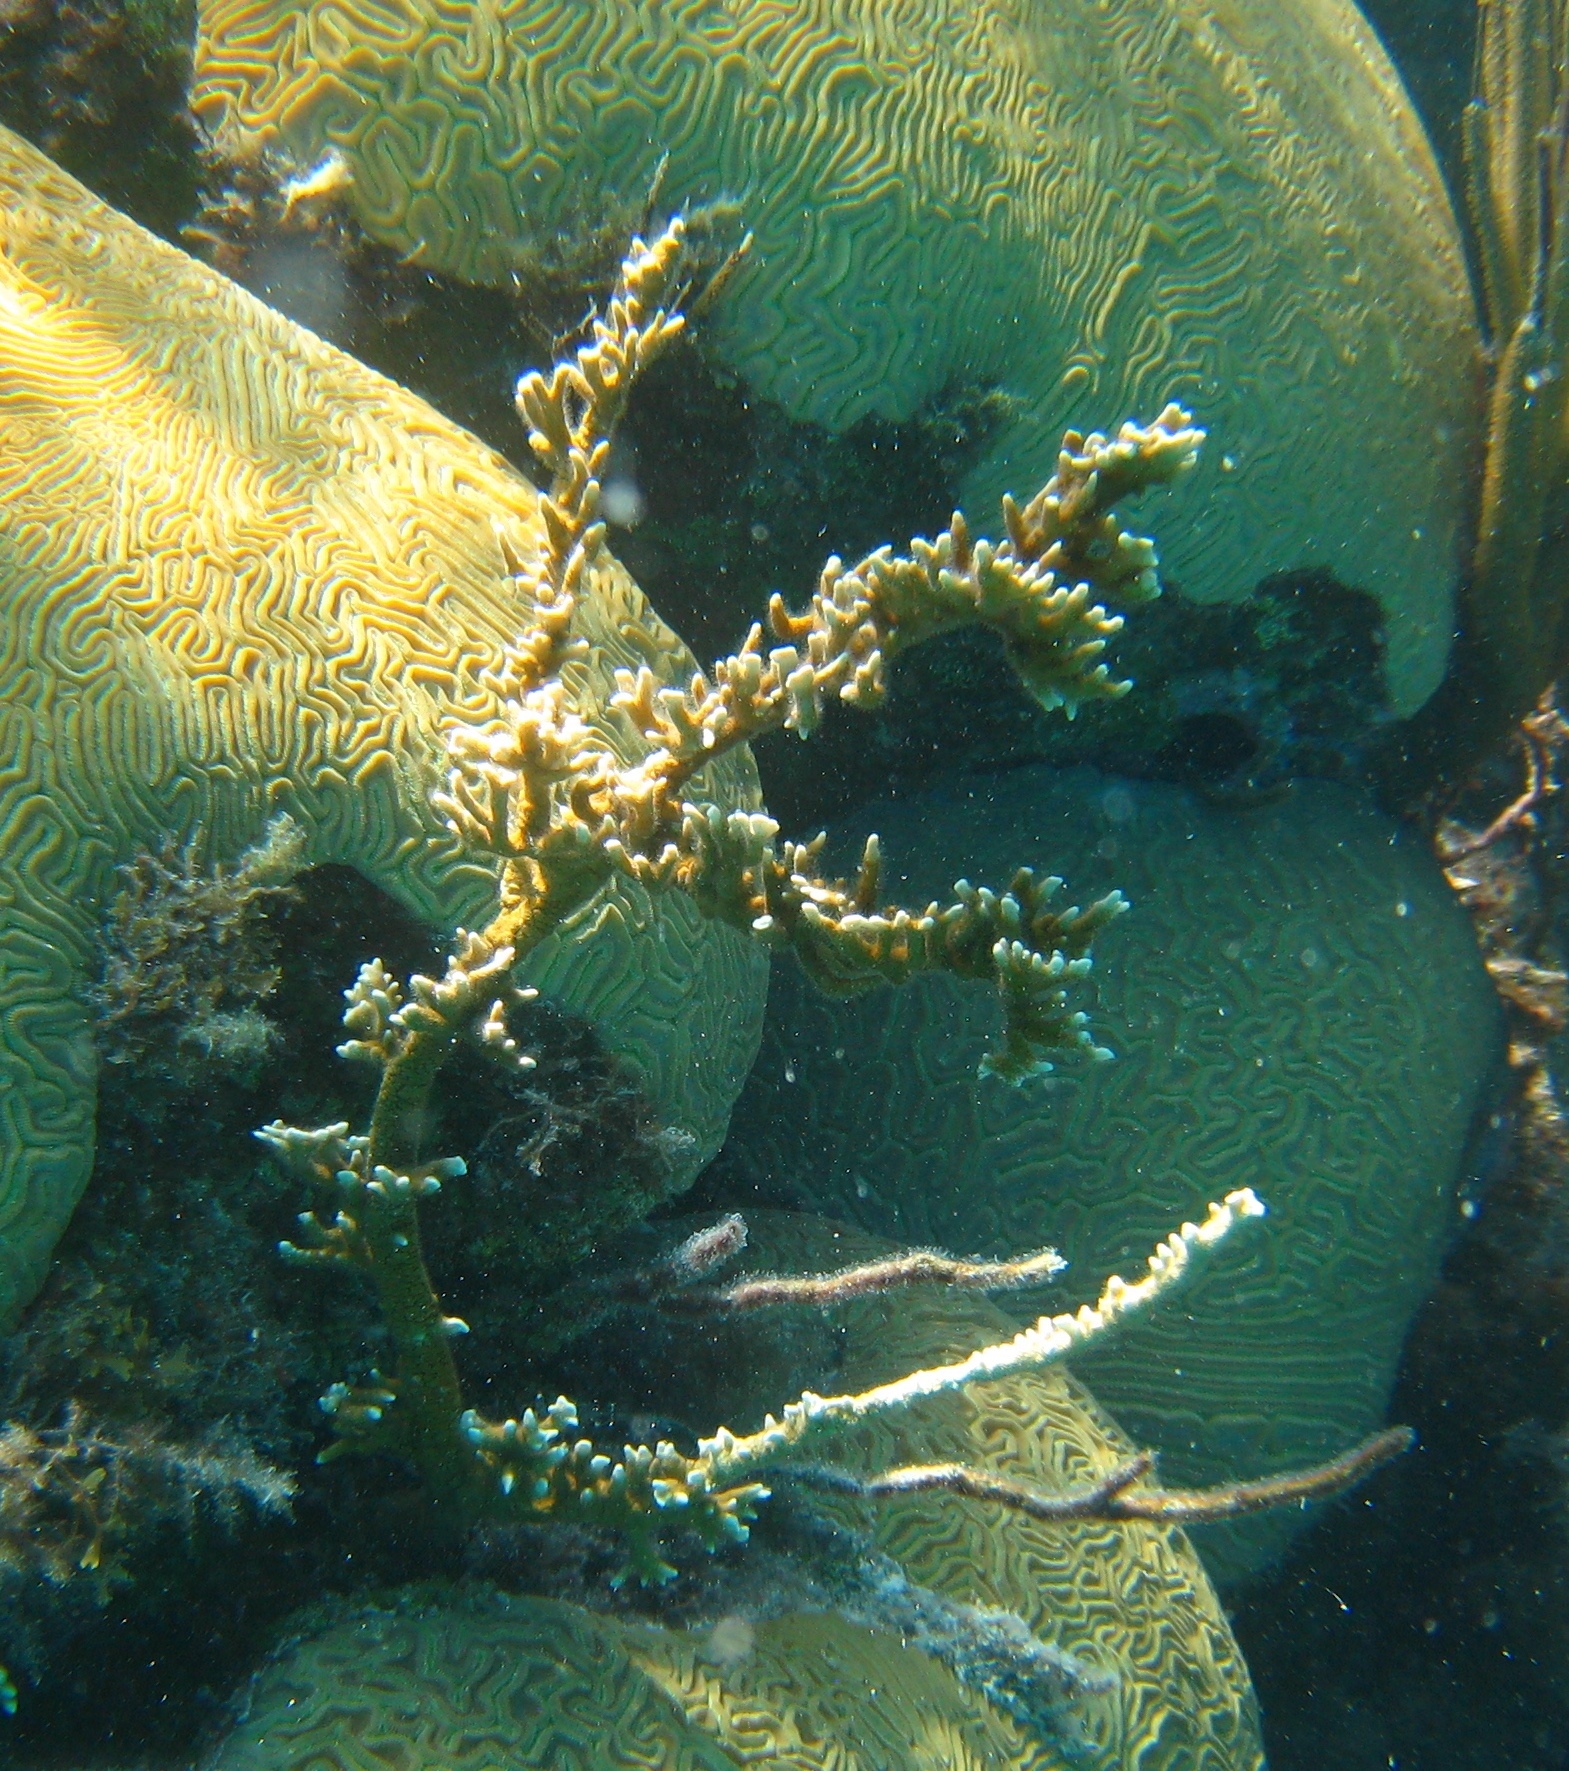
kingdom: Animalia
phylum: Cnidaria
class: Hydrozoa
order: Anthoathecata
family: Milleporidae
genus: Millepora
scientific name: Millepora alcicornis
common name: Branching fire coral
